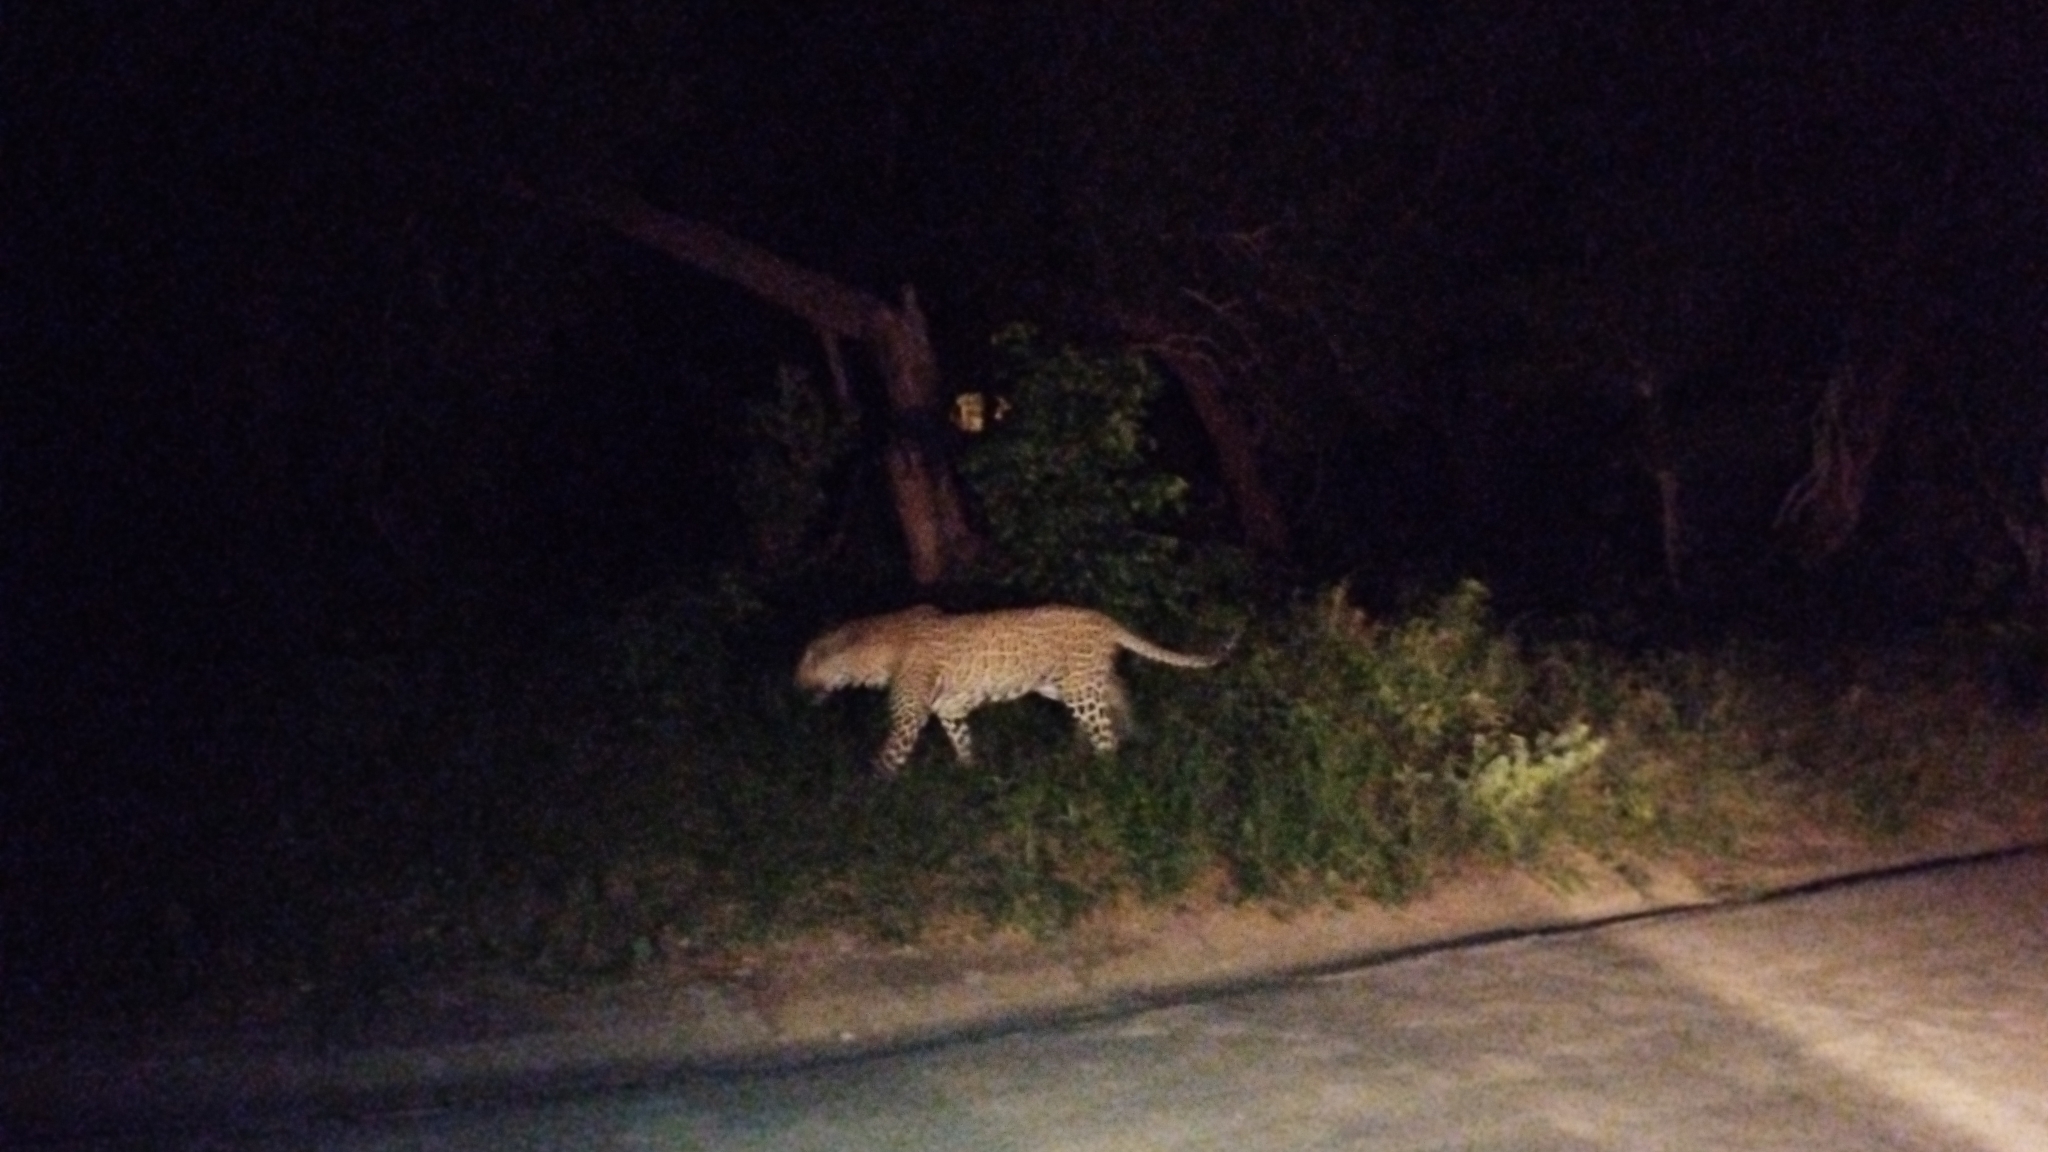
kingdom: Animalia
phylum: Chordata
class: Mammalia
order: Carnivora
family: Felidae
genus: Panthera
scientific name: Panthera pardus
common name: Leopard
